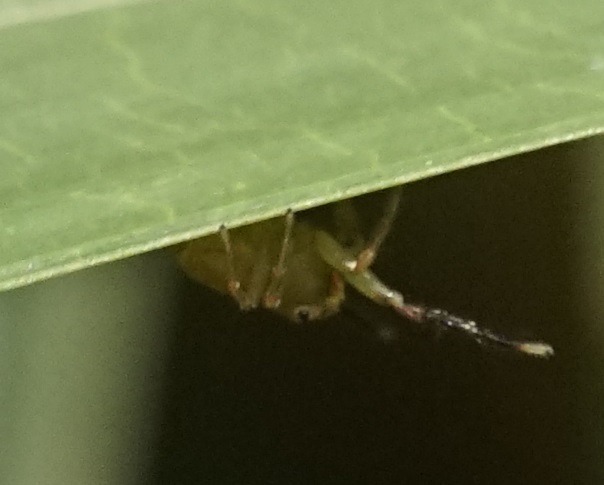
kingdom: Animalia
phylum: Arthropoda
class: Arachnida
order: Araneae
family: Salticidae
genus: Prostheclina
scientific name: Prostheclina pallida
